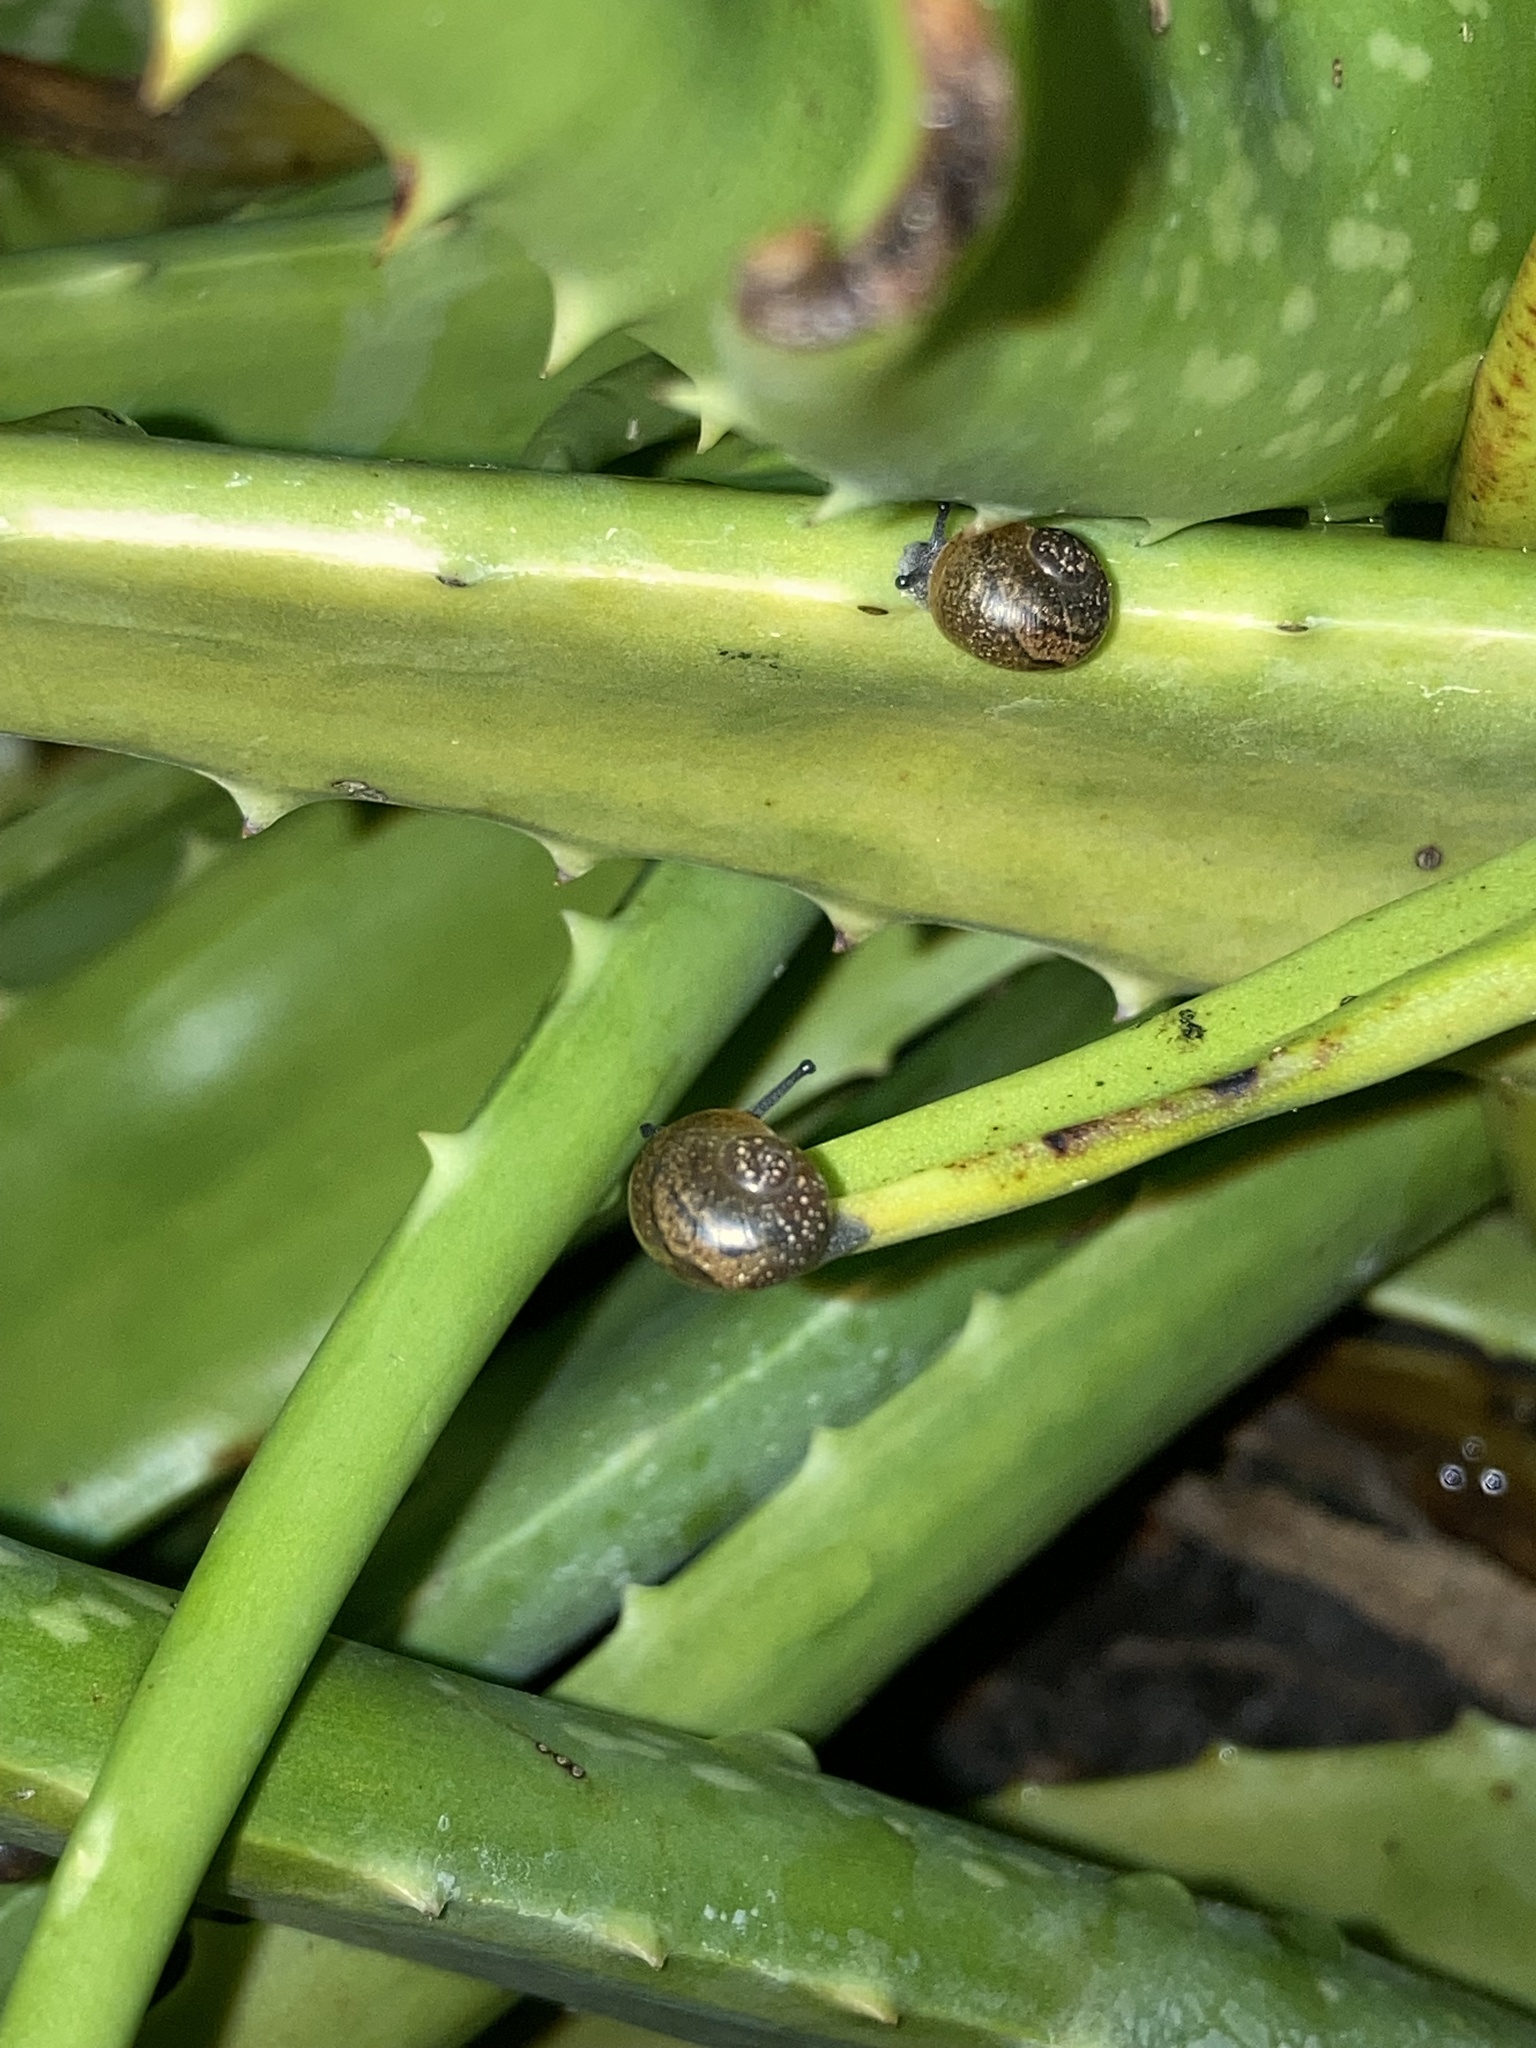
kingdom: Animalia
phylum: Mollusca
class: Gastropoda
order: Stylommatophora
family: Zachrysiidae
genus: Zachrysia
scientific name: Zachrysia provisoria
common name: Garden zachrysia
